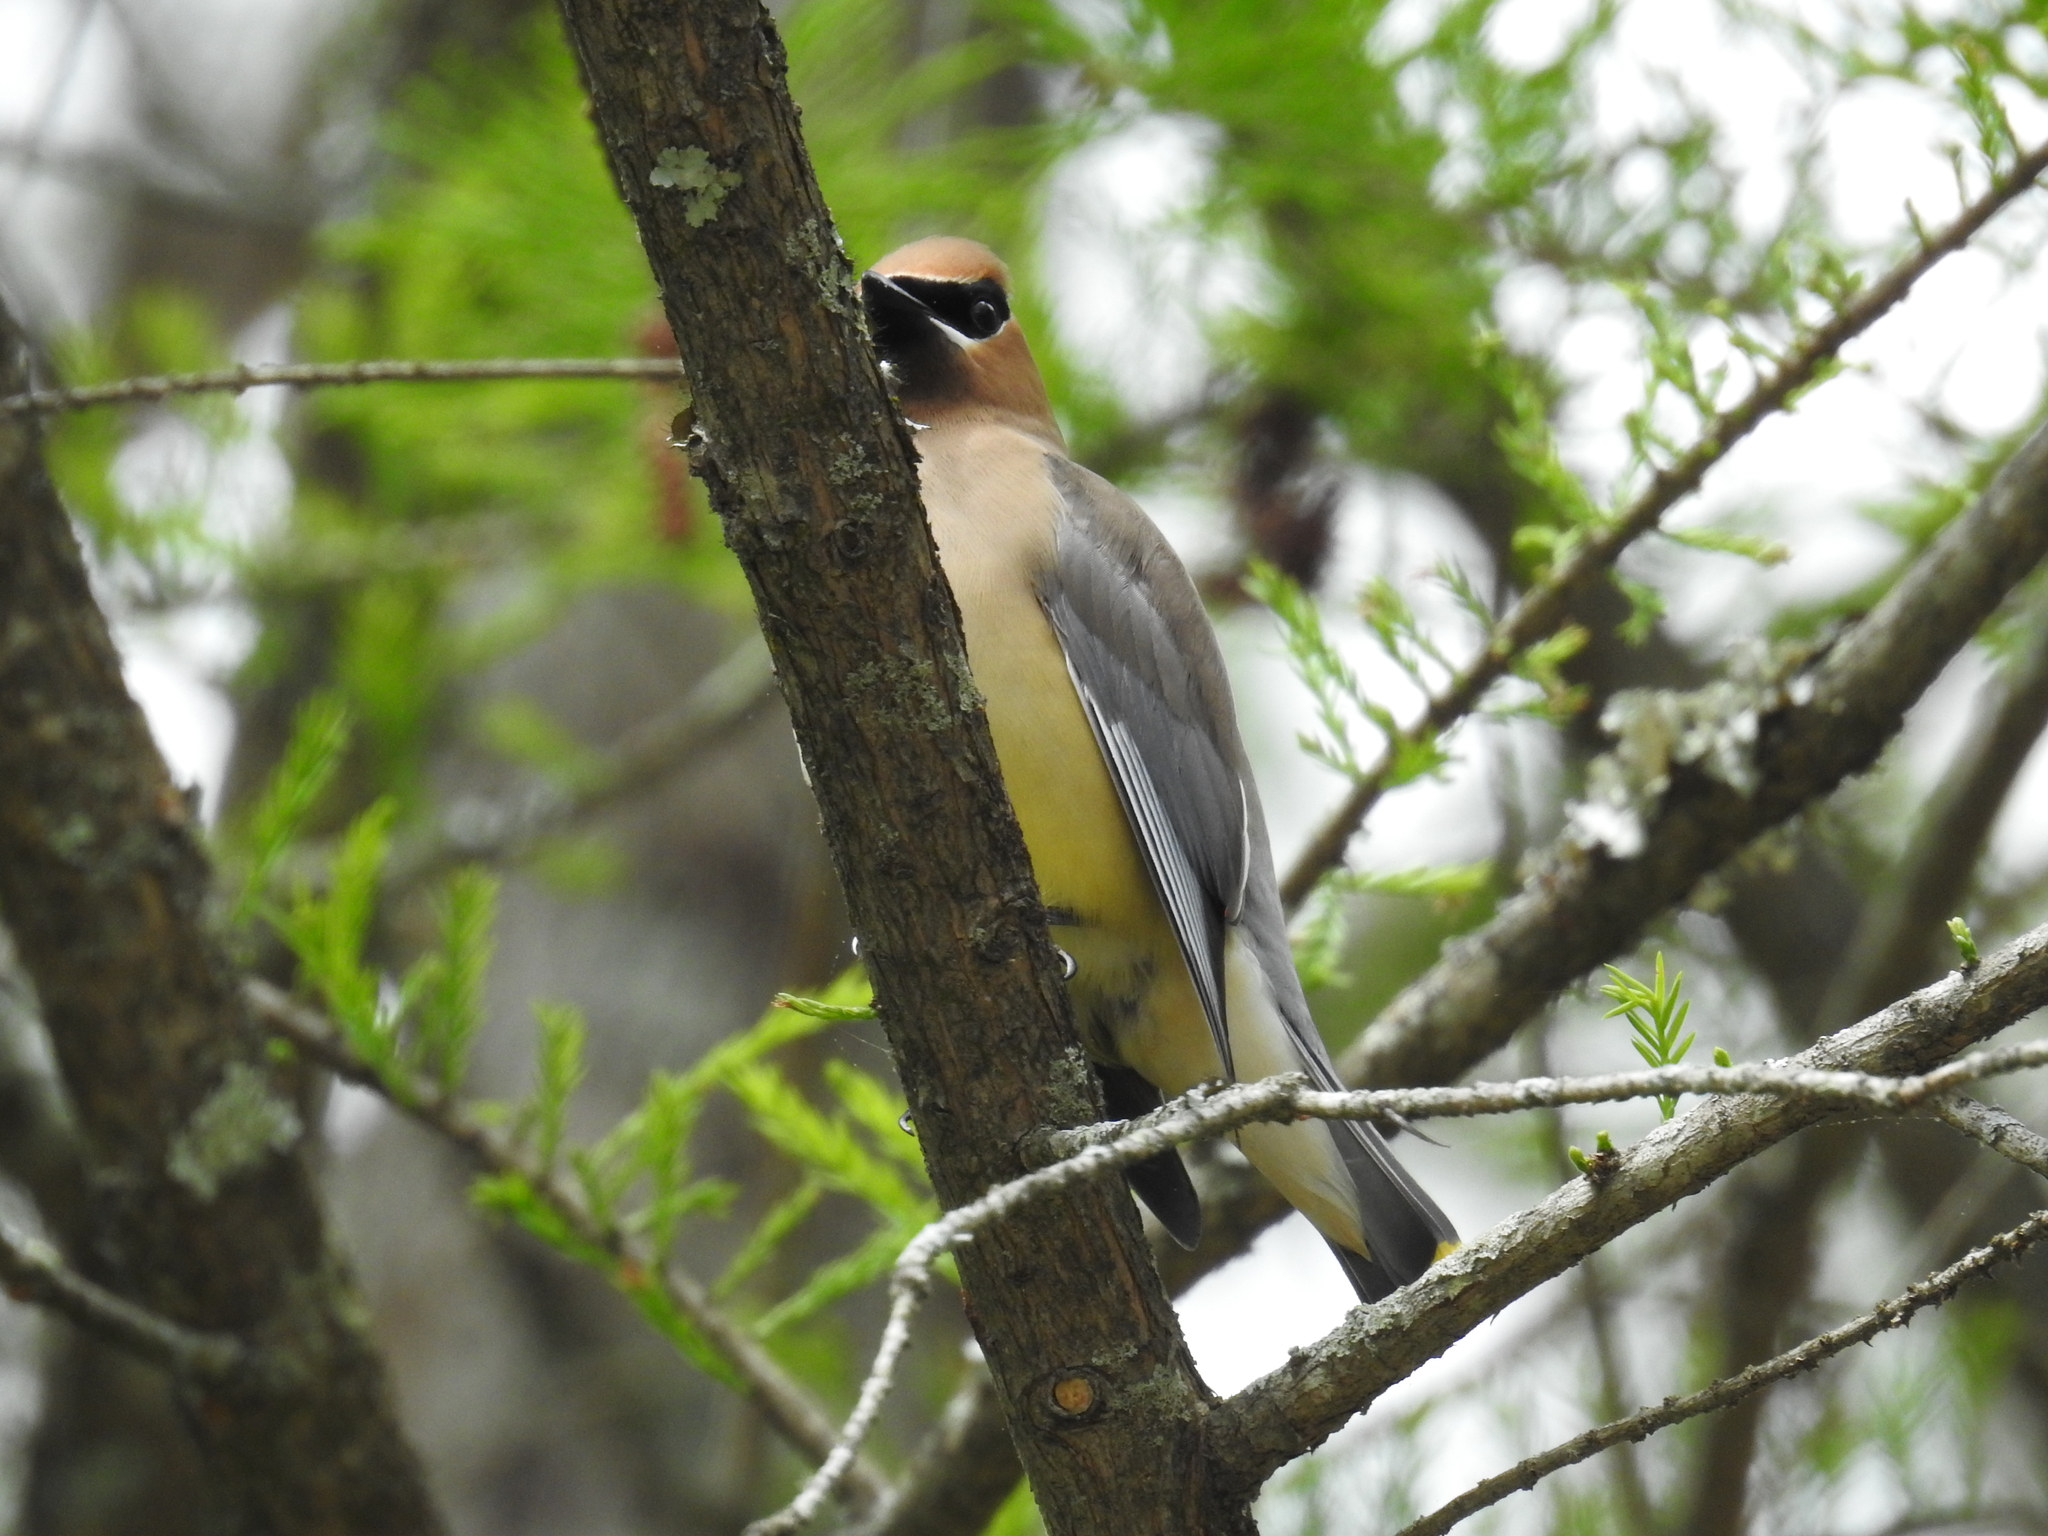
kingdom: Animalia
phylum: Chordata
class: Aves
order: Passeriformes
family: Bombycillidae
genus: Bombycilla
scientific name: Bombycilla cedrorum
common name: Cedar waxwing
